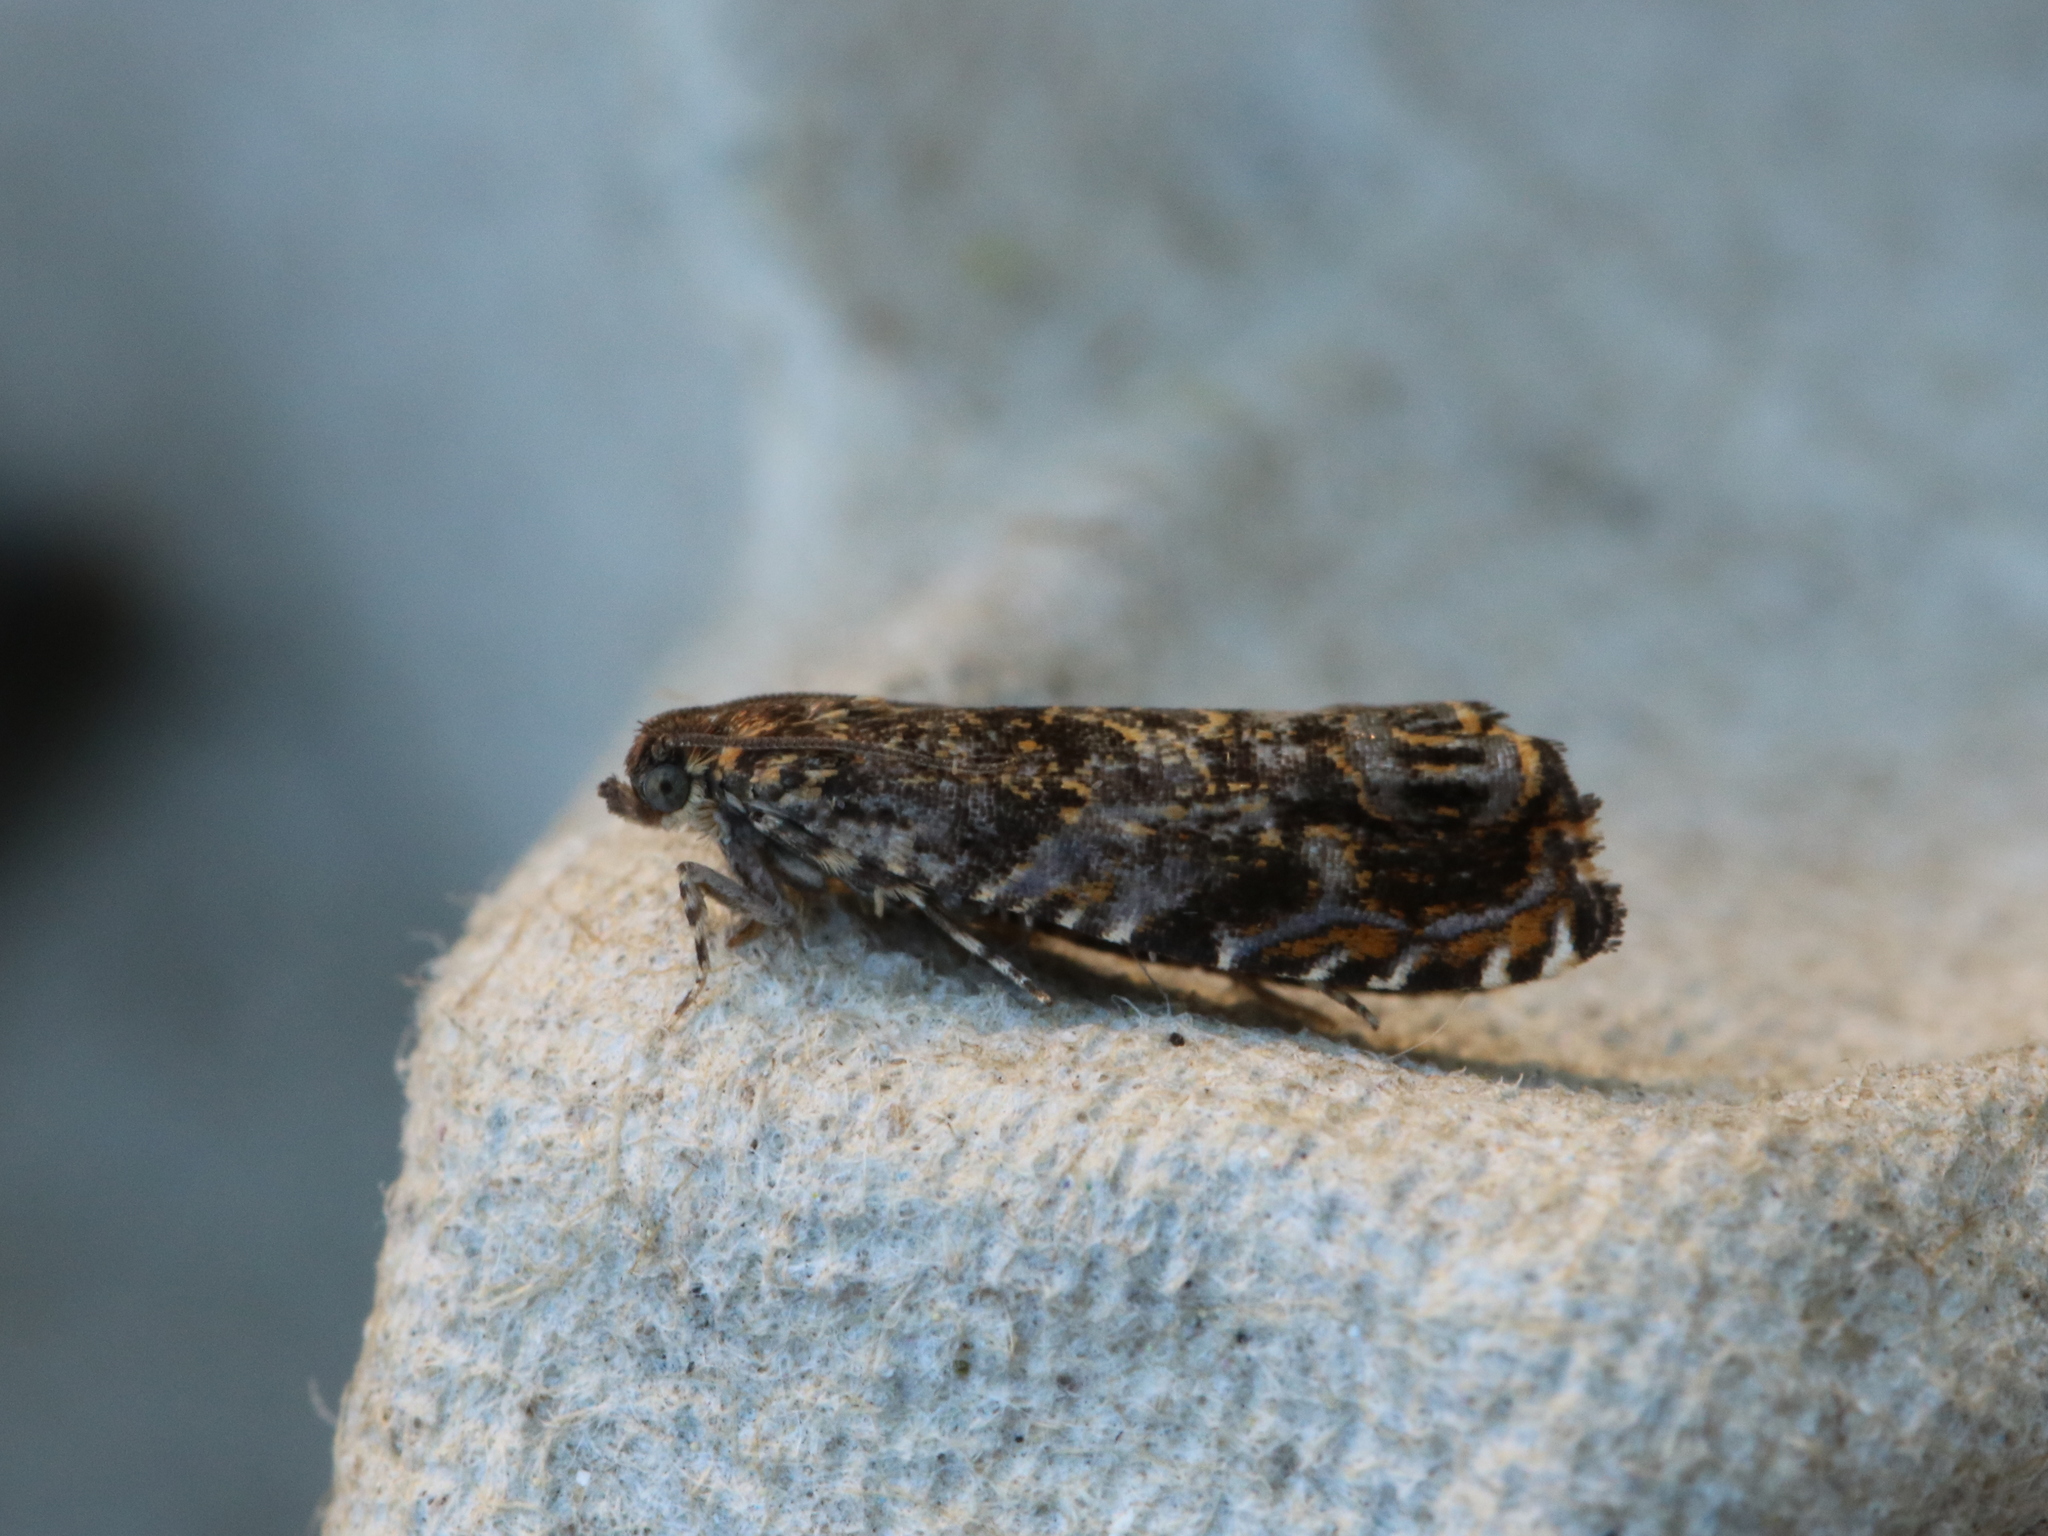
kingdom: Animalia
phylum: Arthropoda
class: Insecta
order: Lepidoptera
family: Tortricidae
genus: Enarmonia
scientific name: Enarmonia formosana
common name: Cherry bark tortrix
